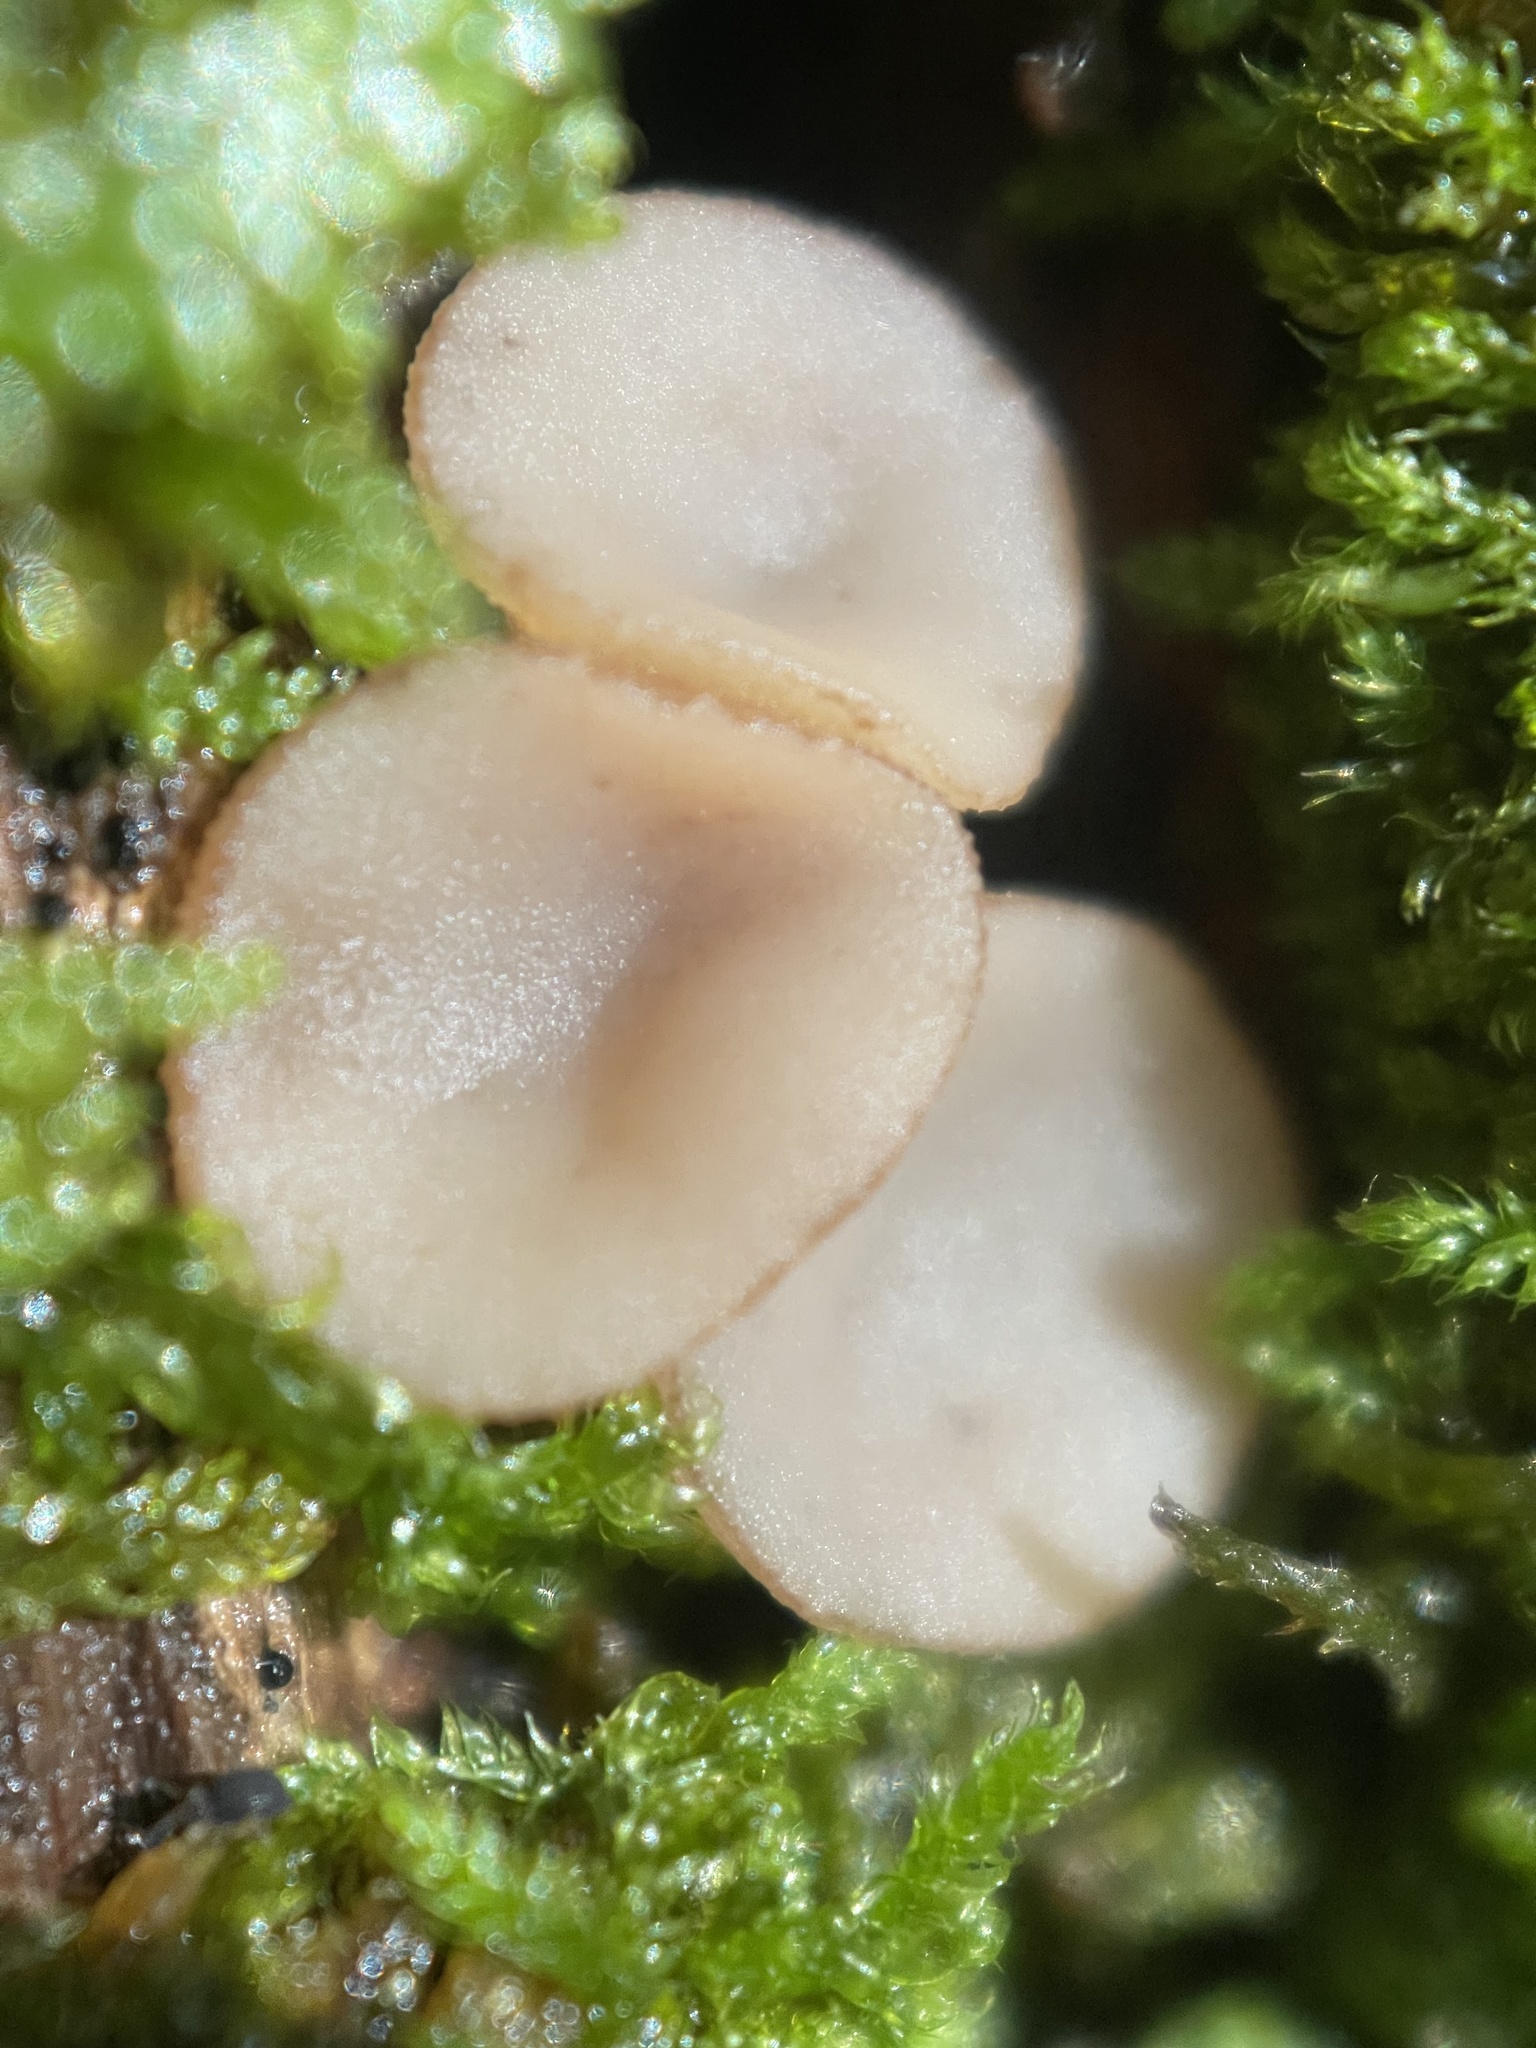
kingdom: Fungi
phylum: Ascomycota
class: Leotiomycetes
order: Helotiales
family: Helotiaceae
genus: Tatraea
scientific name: Tatraea macrospora
